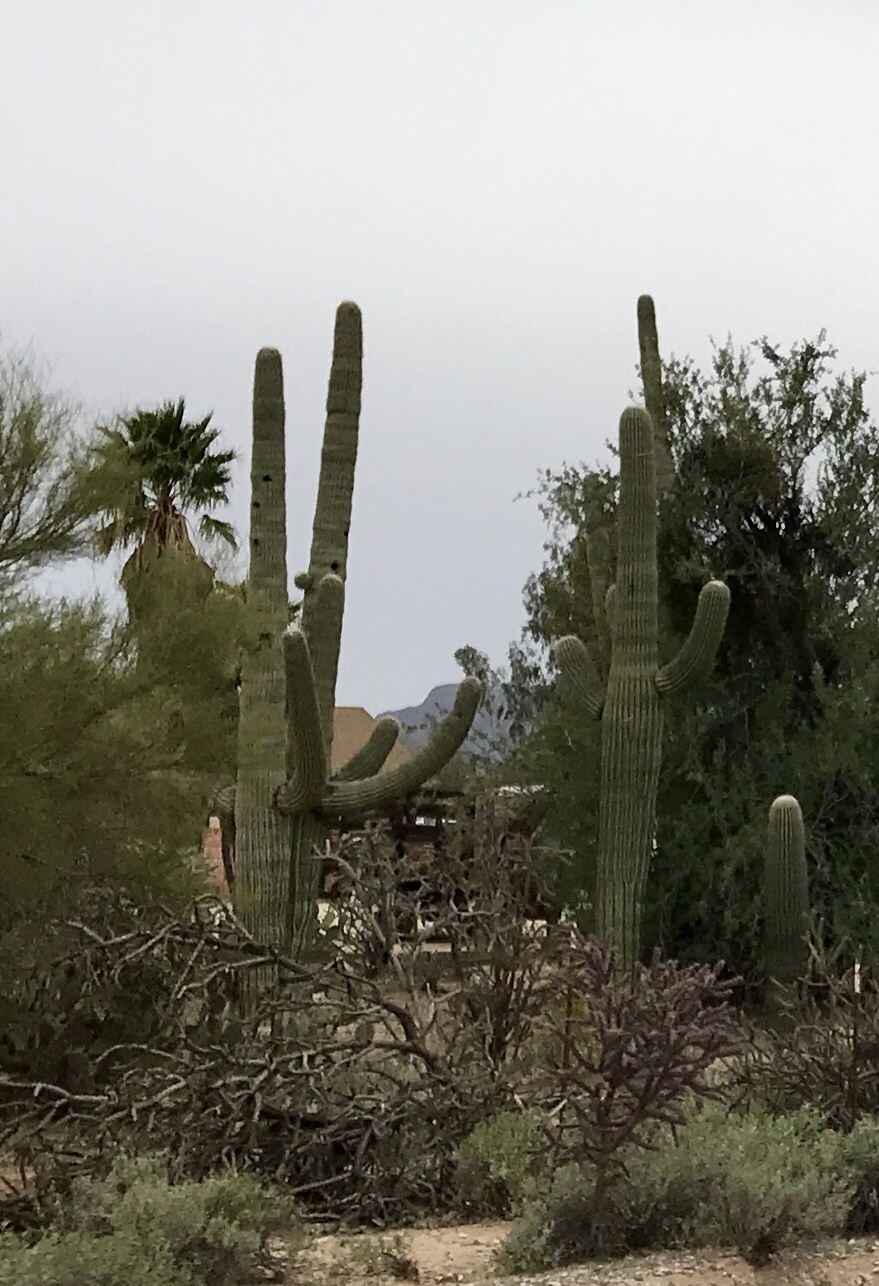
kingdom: Plantae
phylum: Tracheophyta
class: Magnoliopsida
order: Caryophyllales
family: Cactaceae
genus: Carnegiea
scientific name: Carnegiea gigantea
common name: Saguaro
